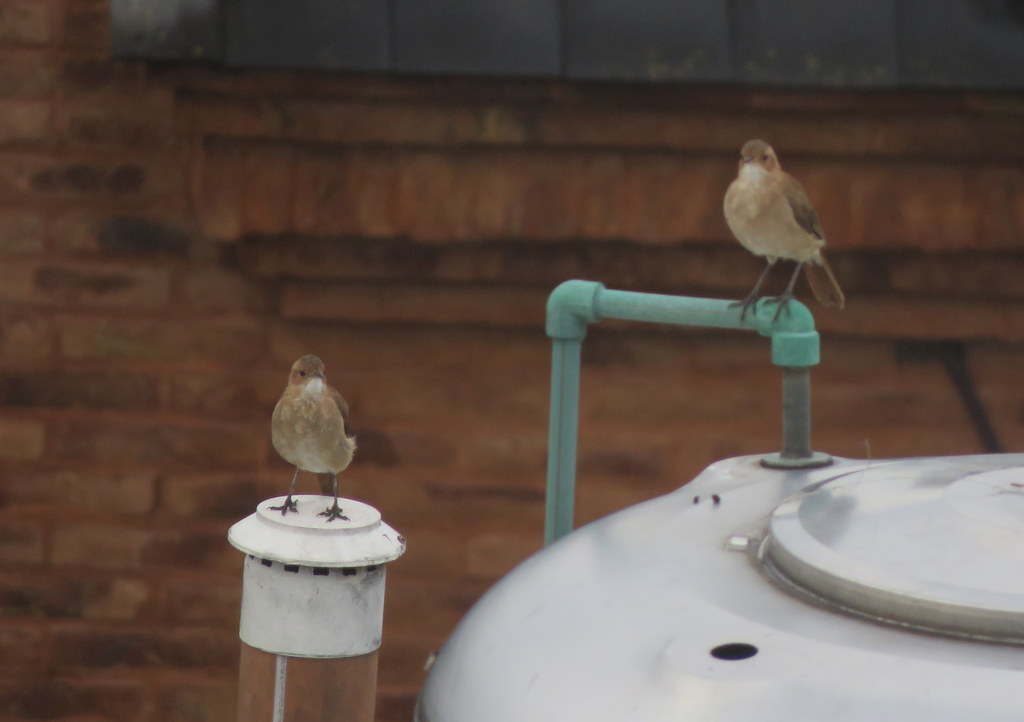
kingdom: Animalia
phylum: Chordata
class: Aves
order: Passeriformes
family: Furnariidae
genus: Furnarius
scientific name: Furnarius rufus
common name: Rufous hornero
